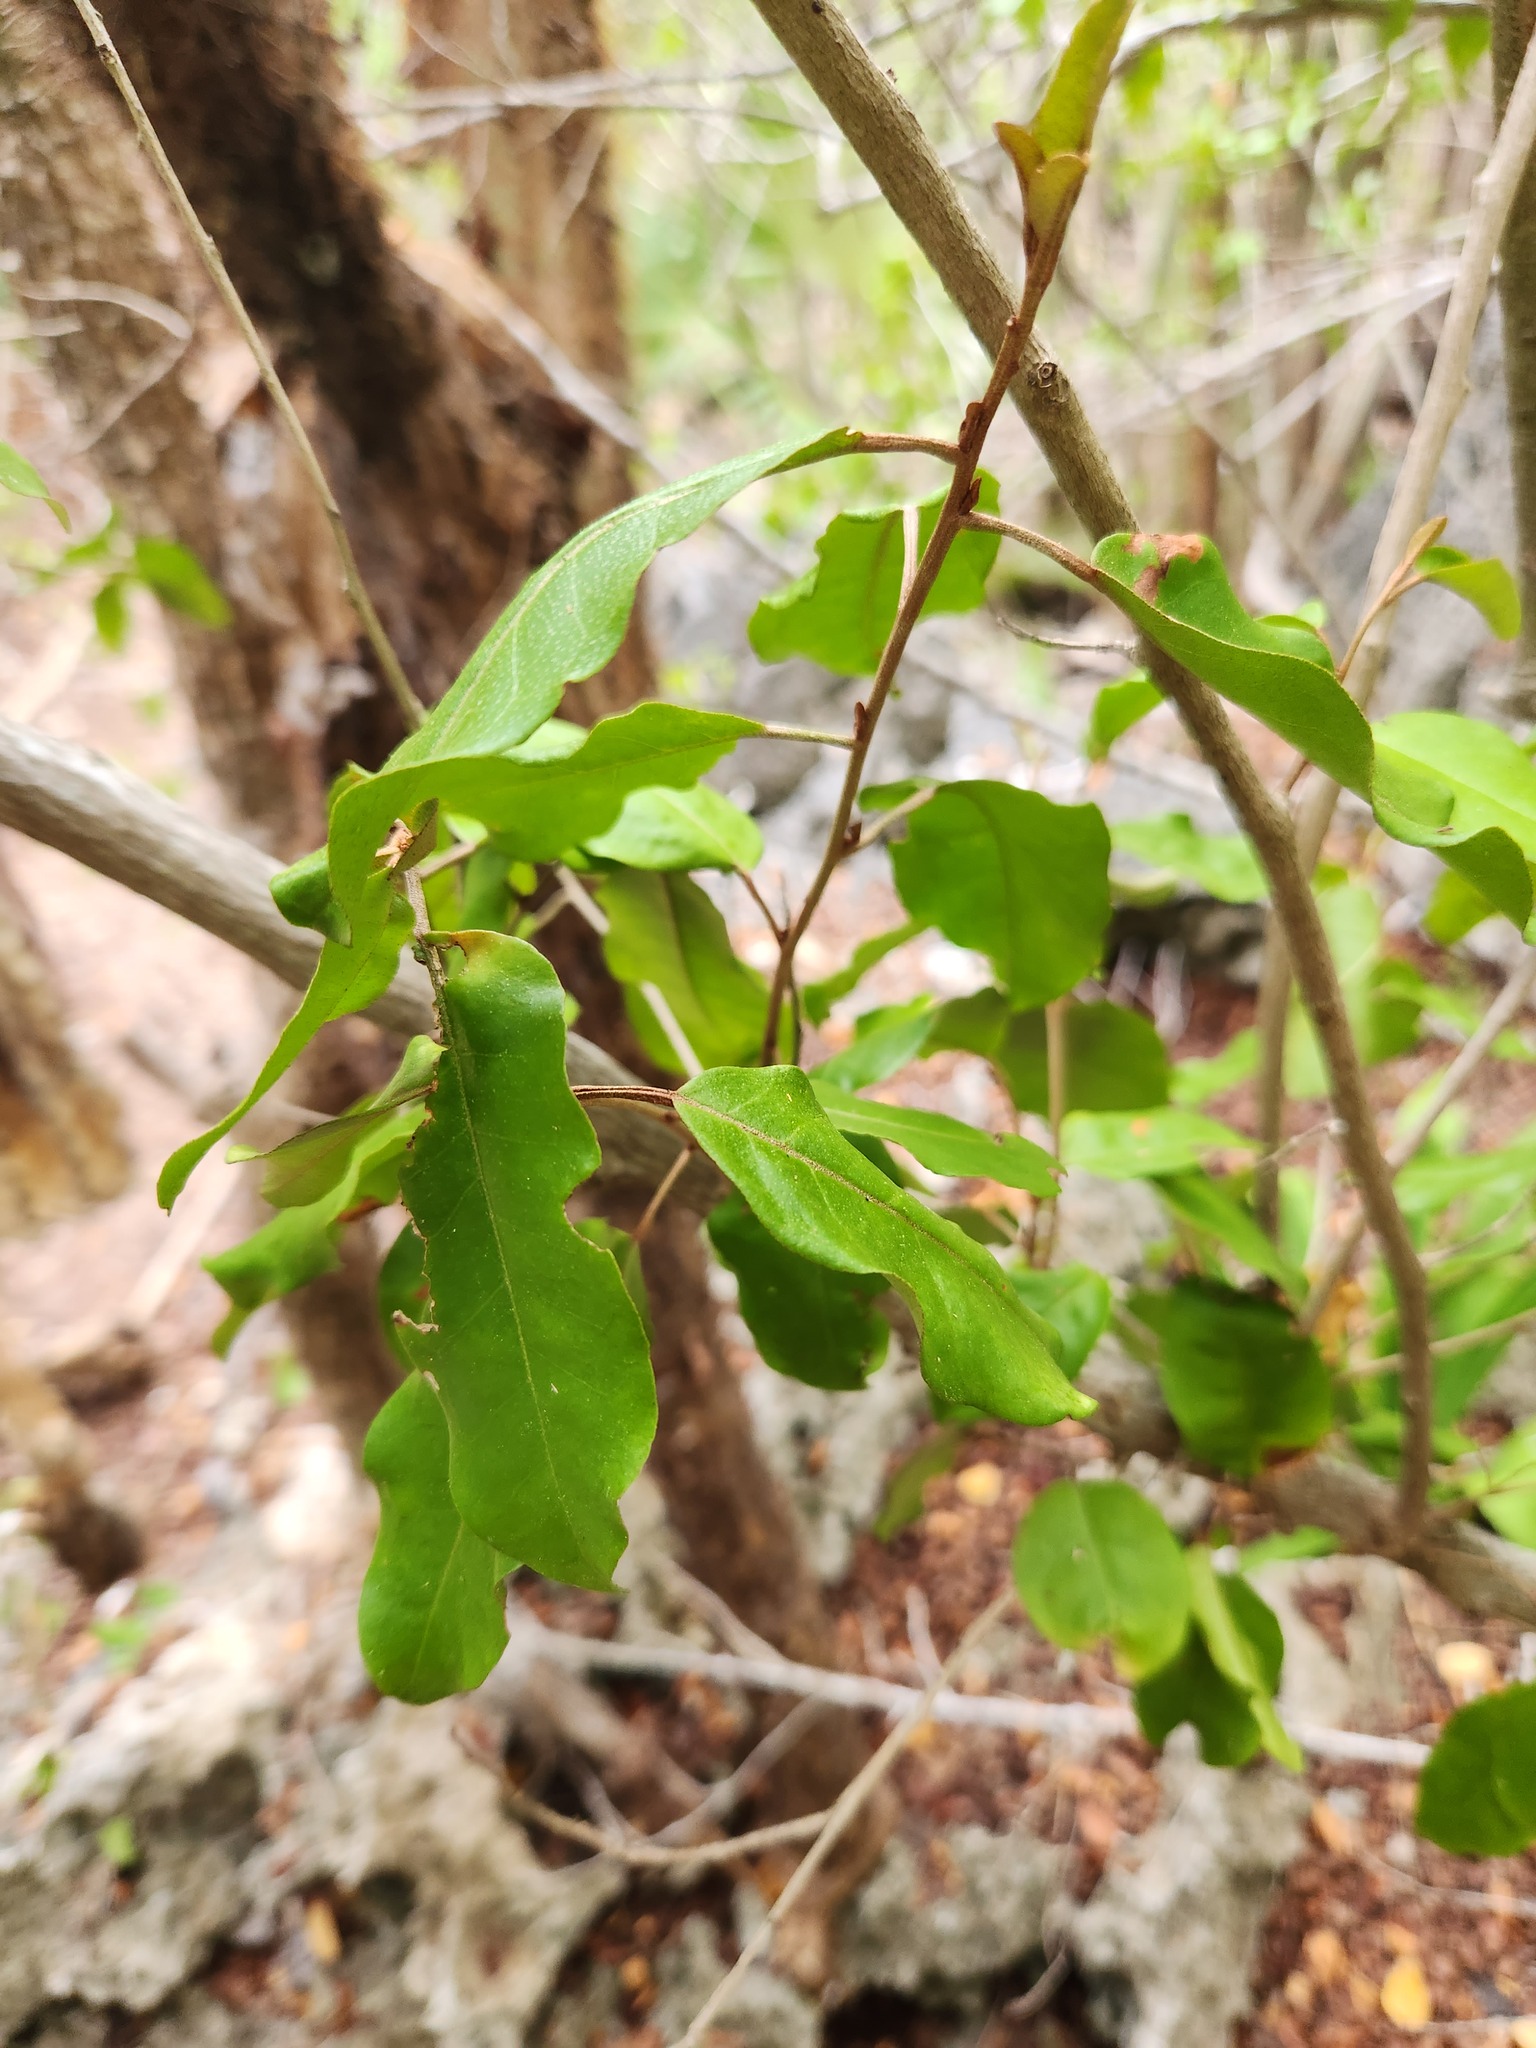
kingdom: Plantae
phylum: Tracheophyta
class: Magnoliopsida
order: Malpighiales
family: Euphorbiaceae
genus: Croton
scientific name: Croton nitens
